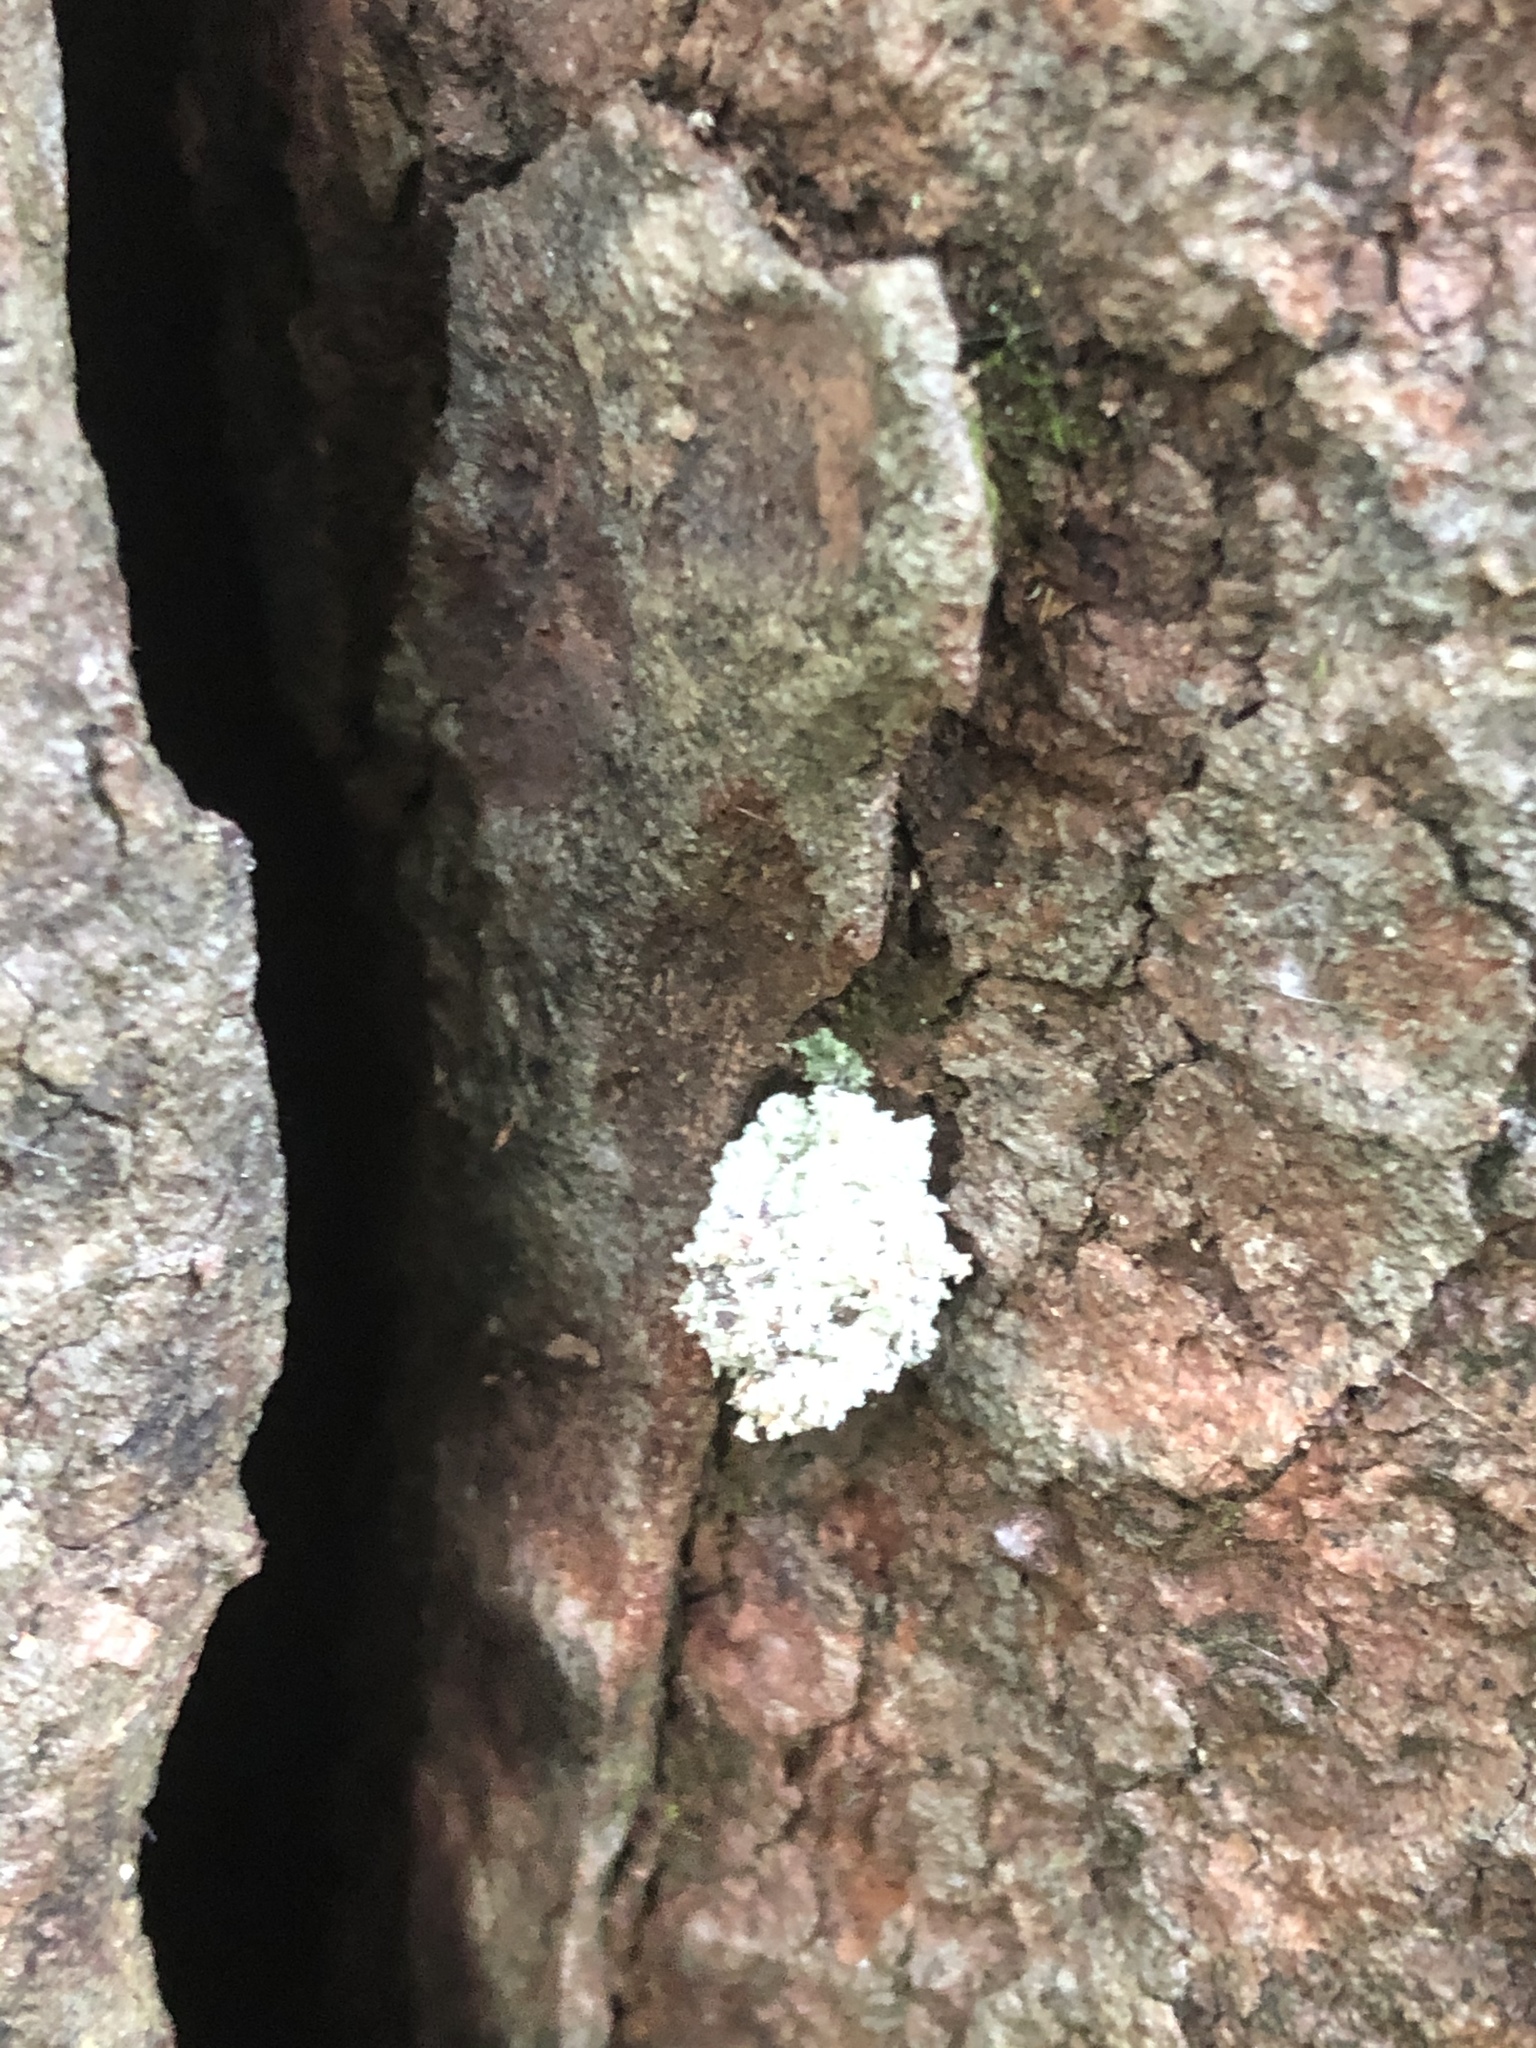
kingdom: Animalia
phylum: Arthropoda
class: Insecta
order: Neuroptera
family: Chrysopidae
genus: Leucochrysa
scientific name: Leucochrysa pavida
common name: Lichen-carrying green lacewing
